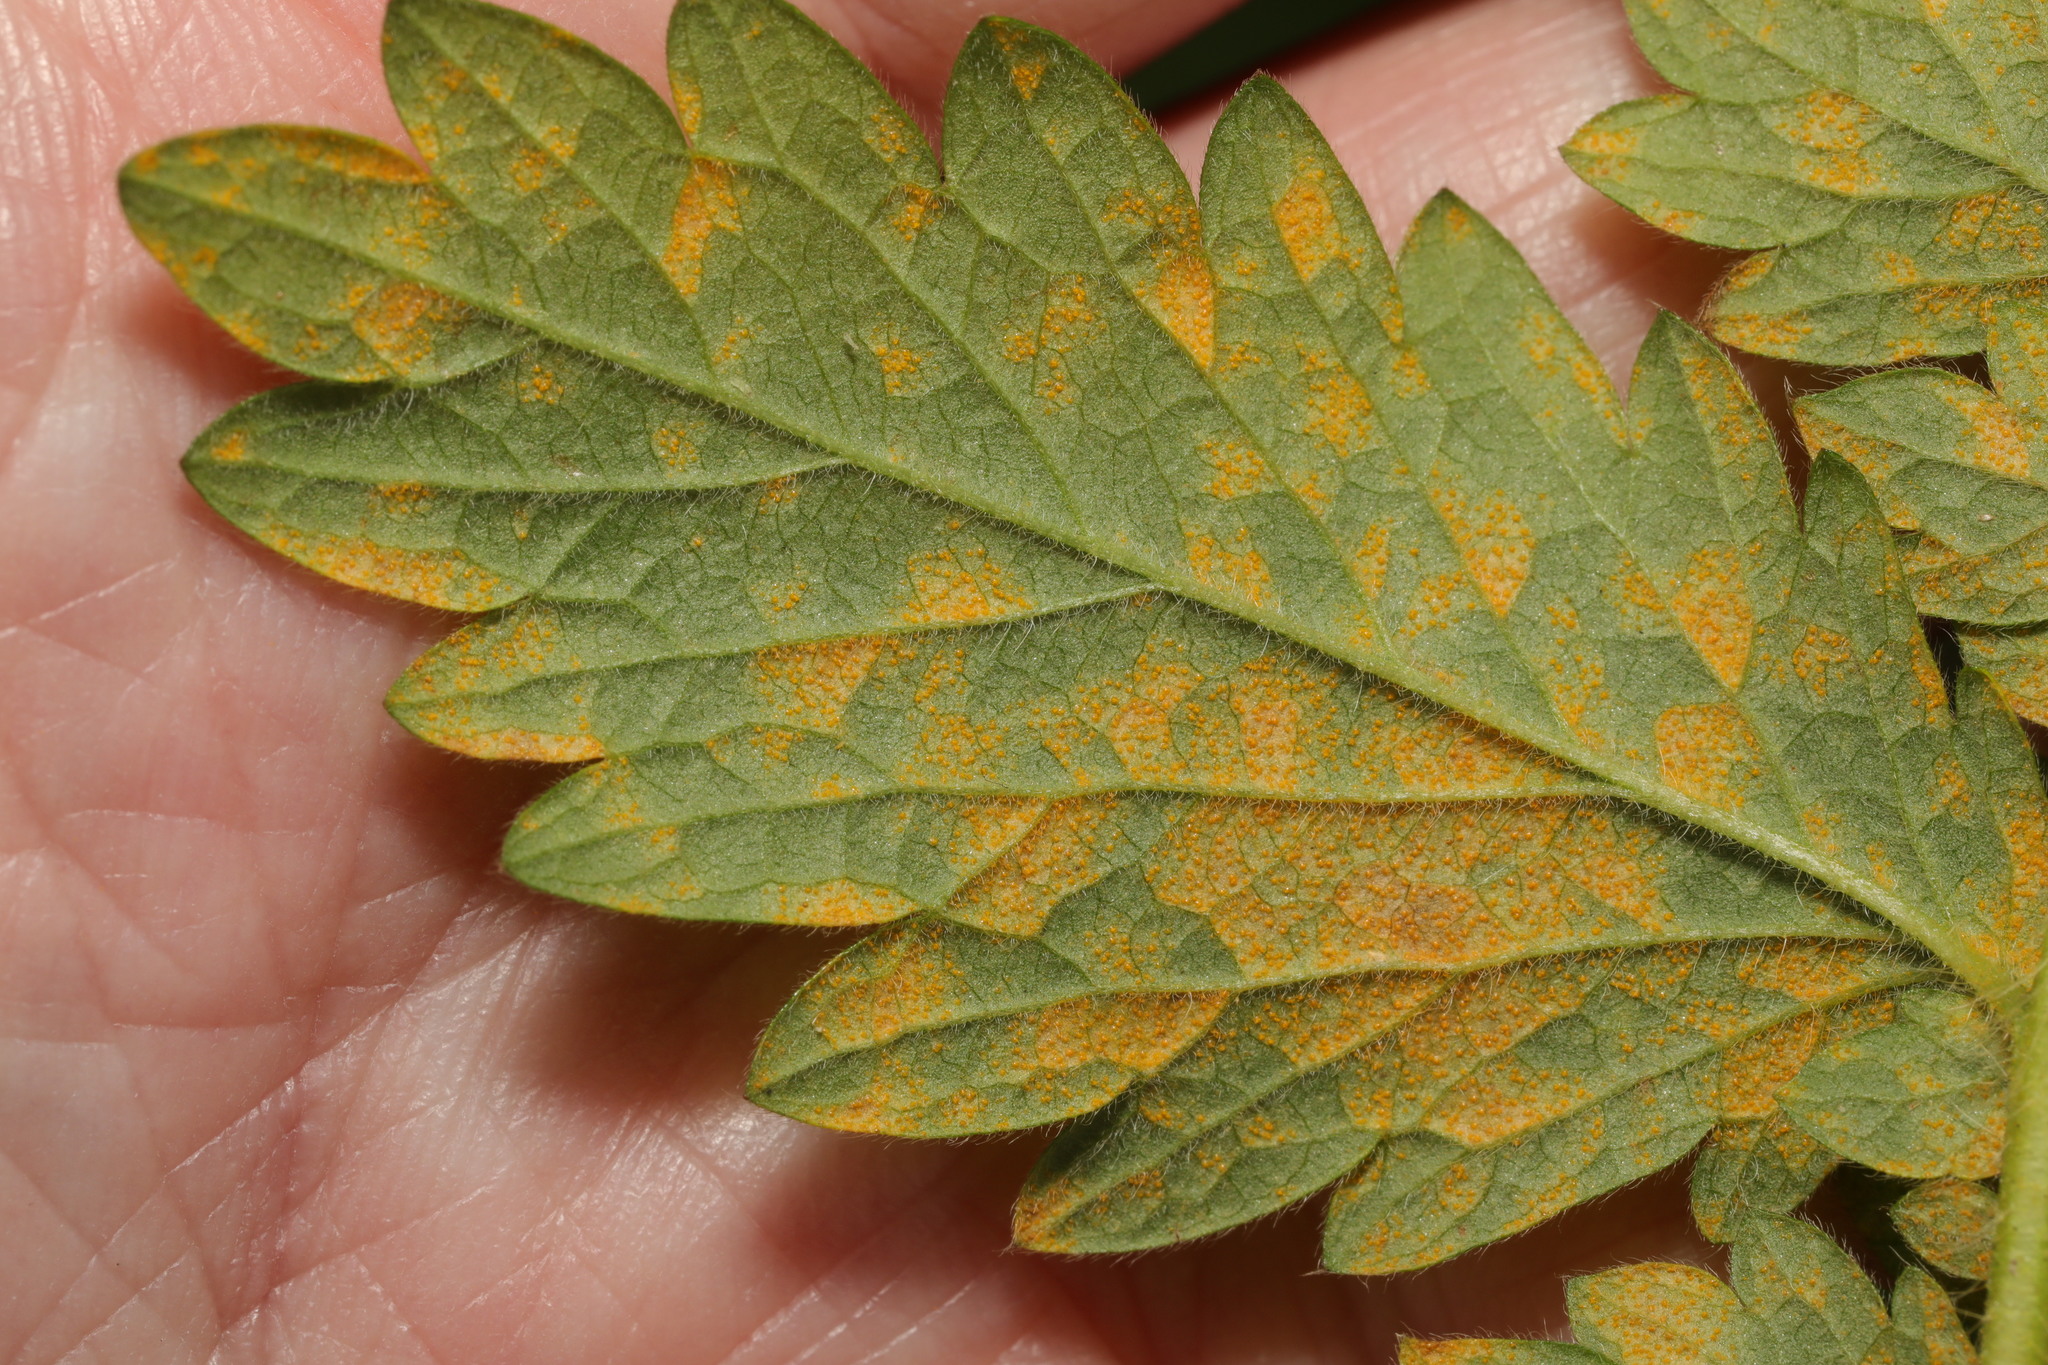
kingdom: Fungi
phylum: Basidiomycota
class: Pucciniomycetes
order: Pucciniales
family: Cronartiaceae
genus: Quasipucciniastrum
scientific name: Quasipucciniastrum ochraceum
